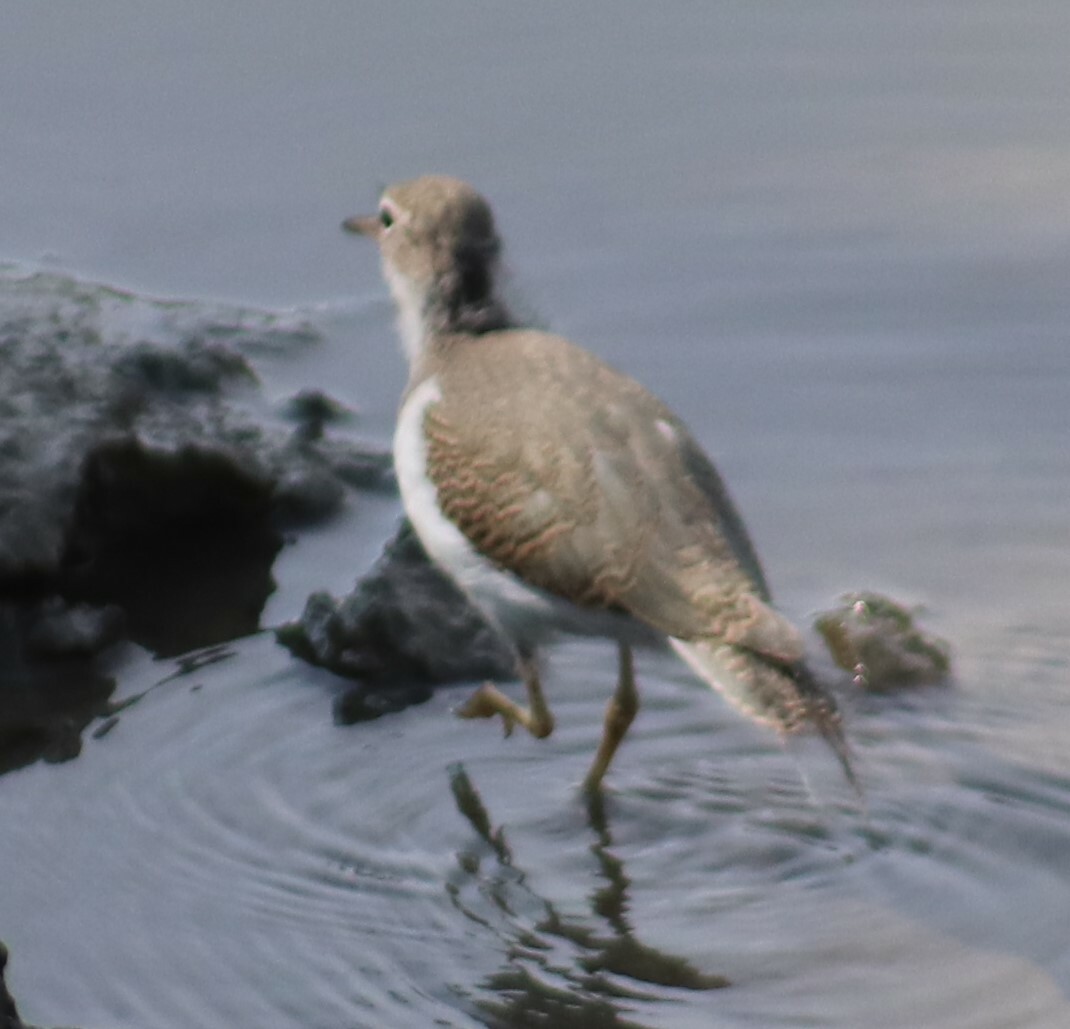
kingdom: Animalia
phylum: Chordata
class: Aves
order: Charadriiformes
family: Scolopacidae
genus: Actitis
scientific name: Actitis macularius
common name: Spotted sandpiper
